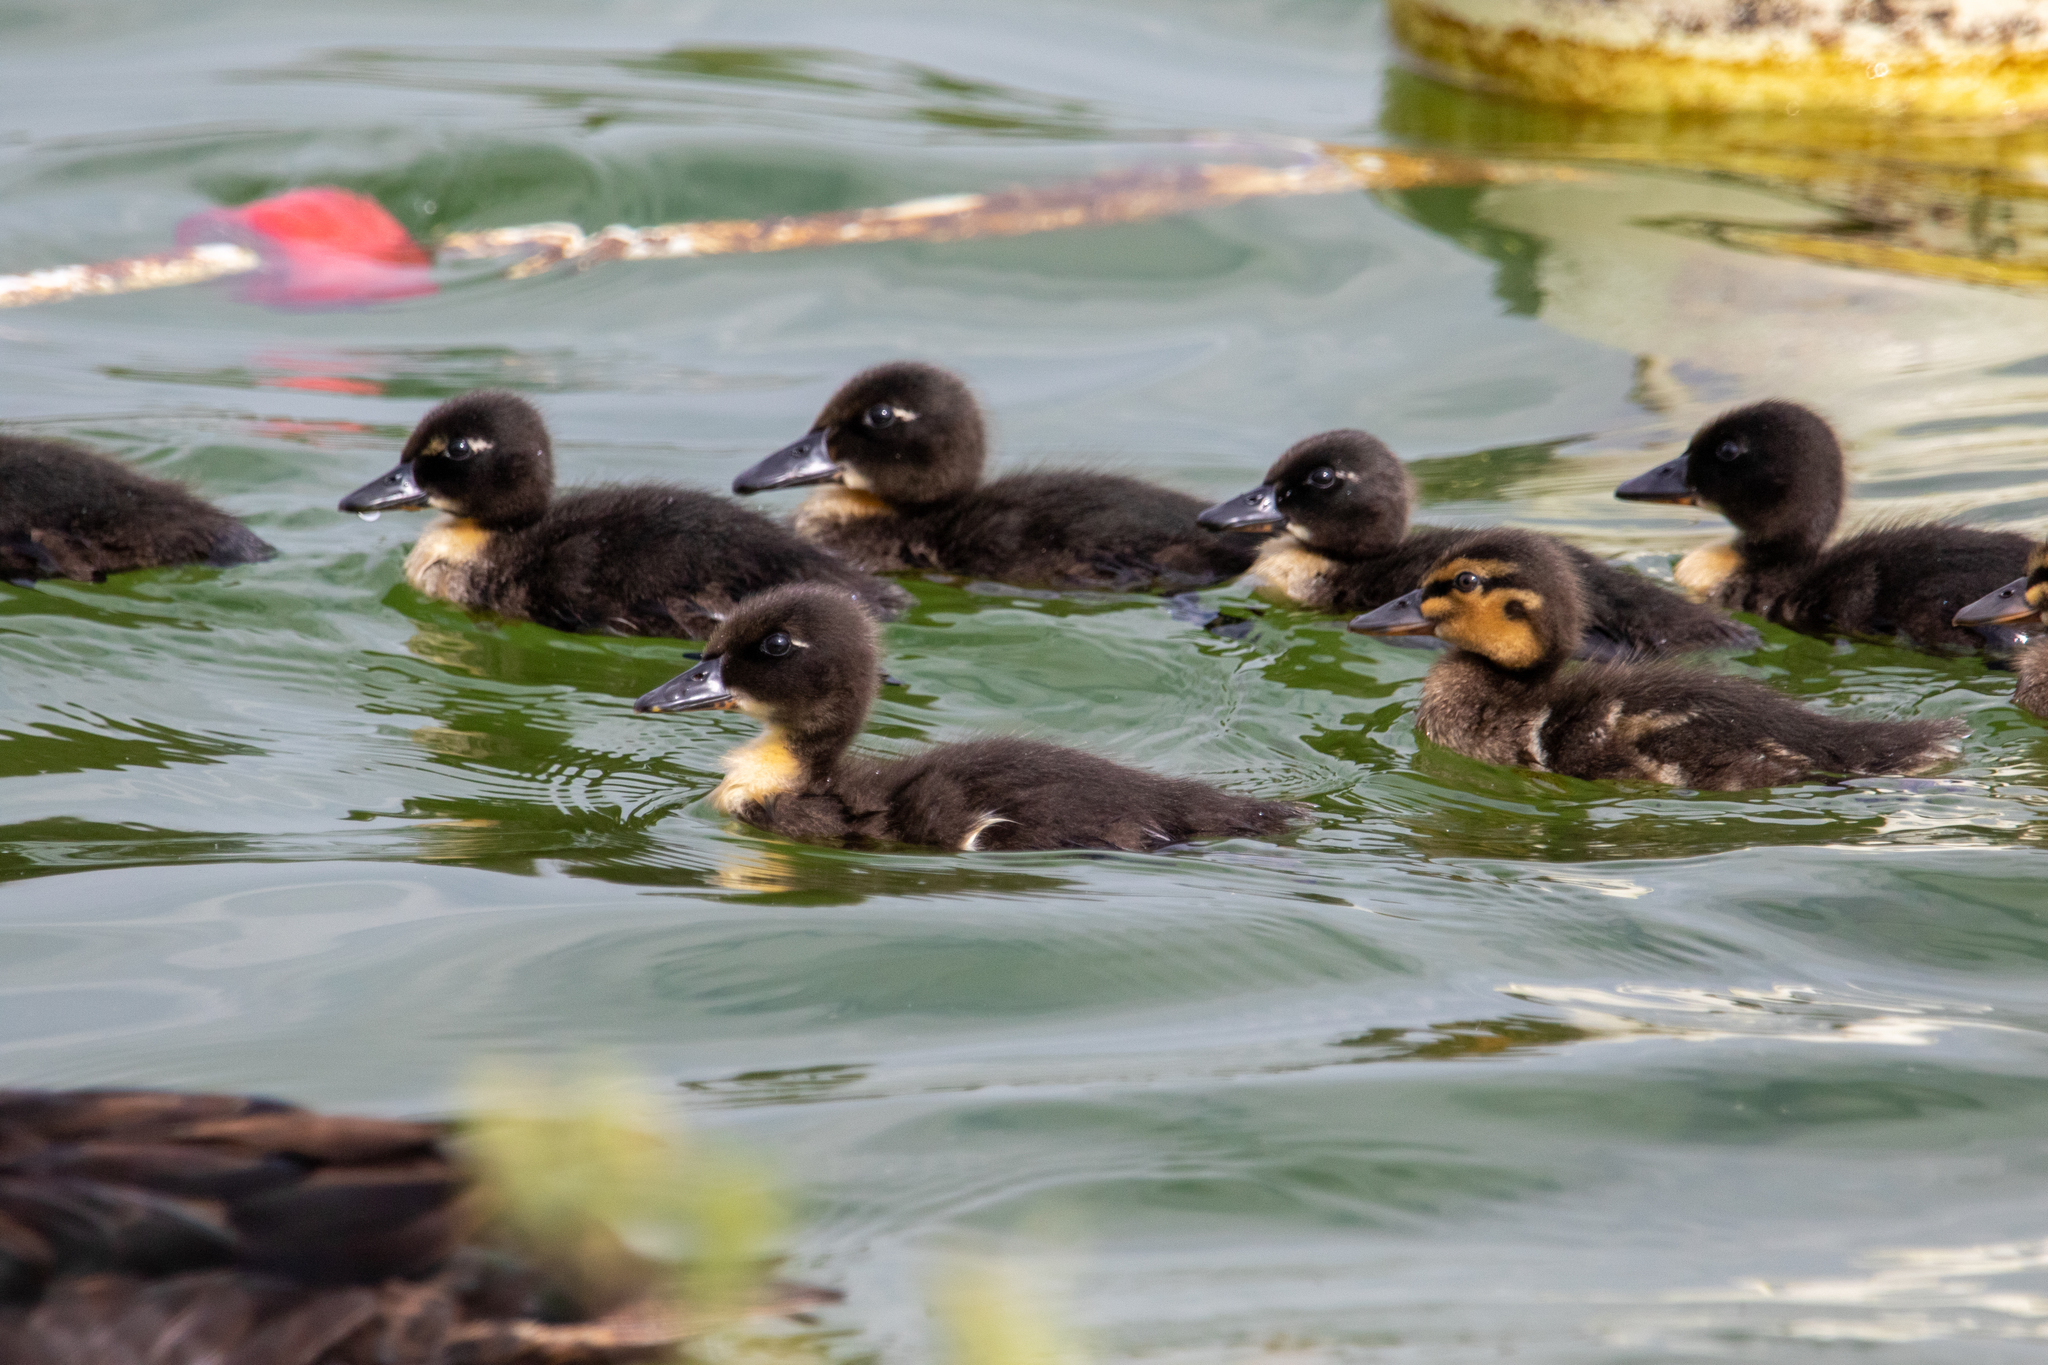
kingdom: Animalia
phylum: Chordata
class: Aves
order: Anseriformes
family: Anatidae
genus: Anas
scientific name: Anas platyrhynchos
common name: Mallard
